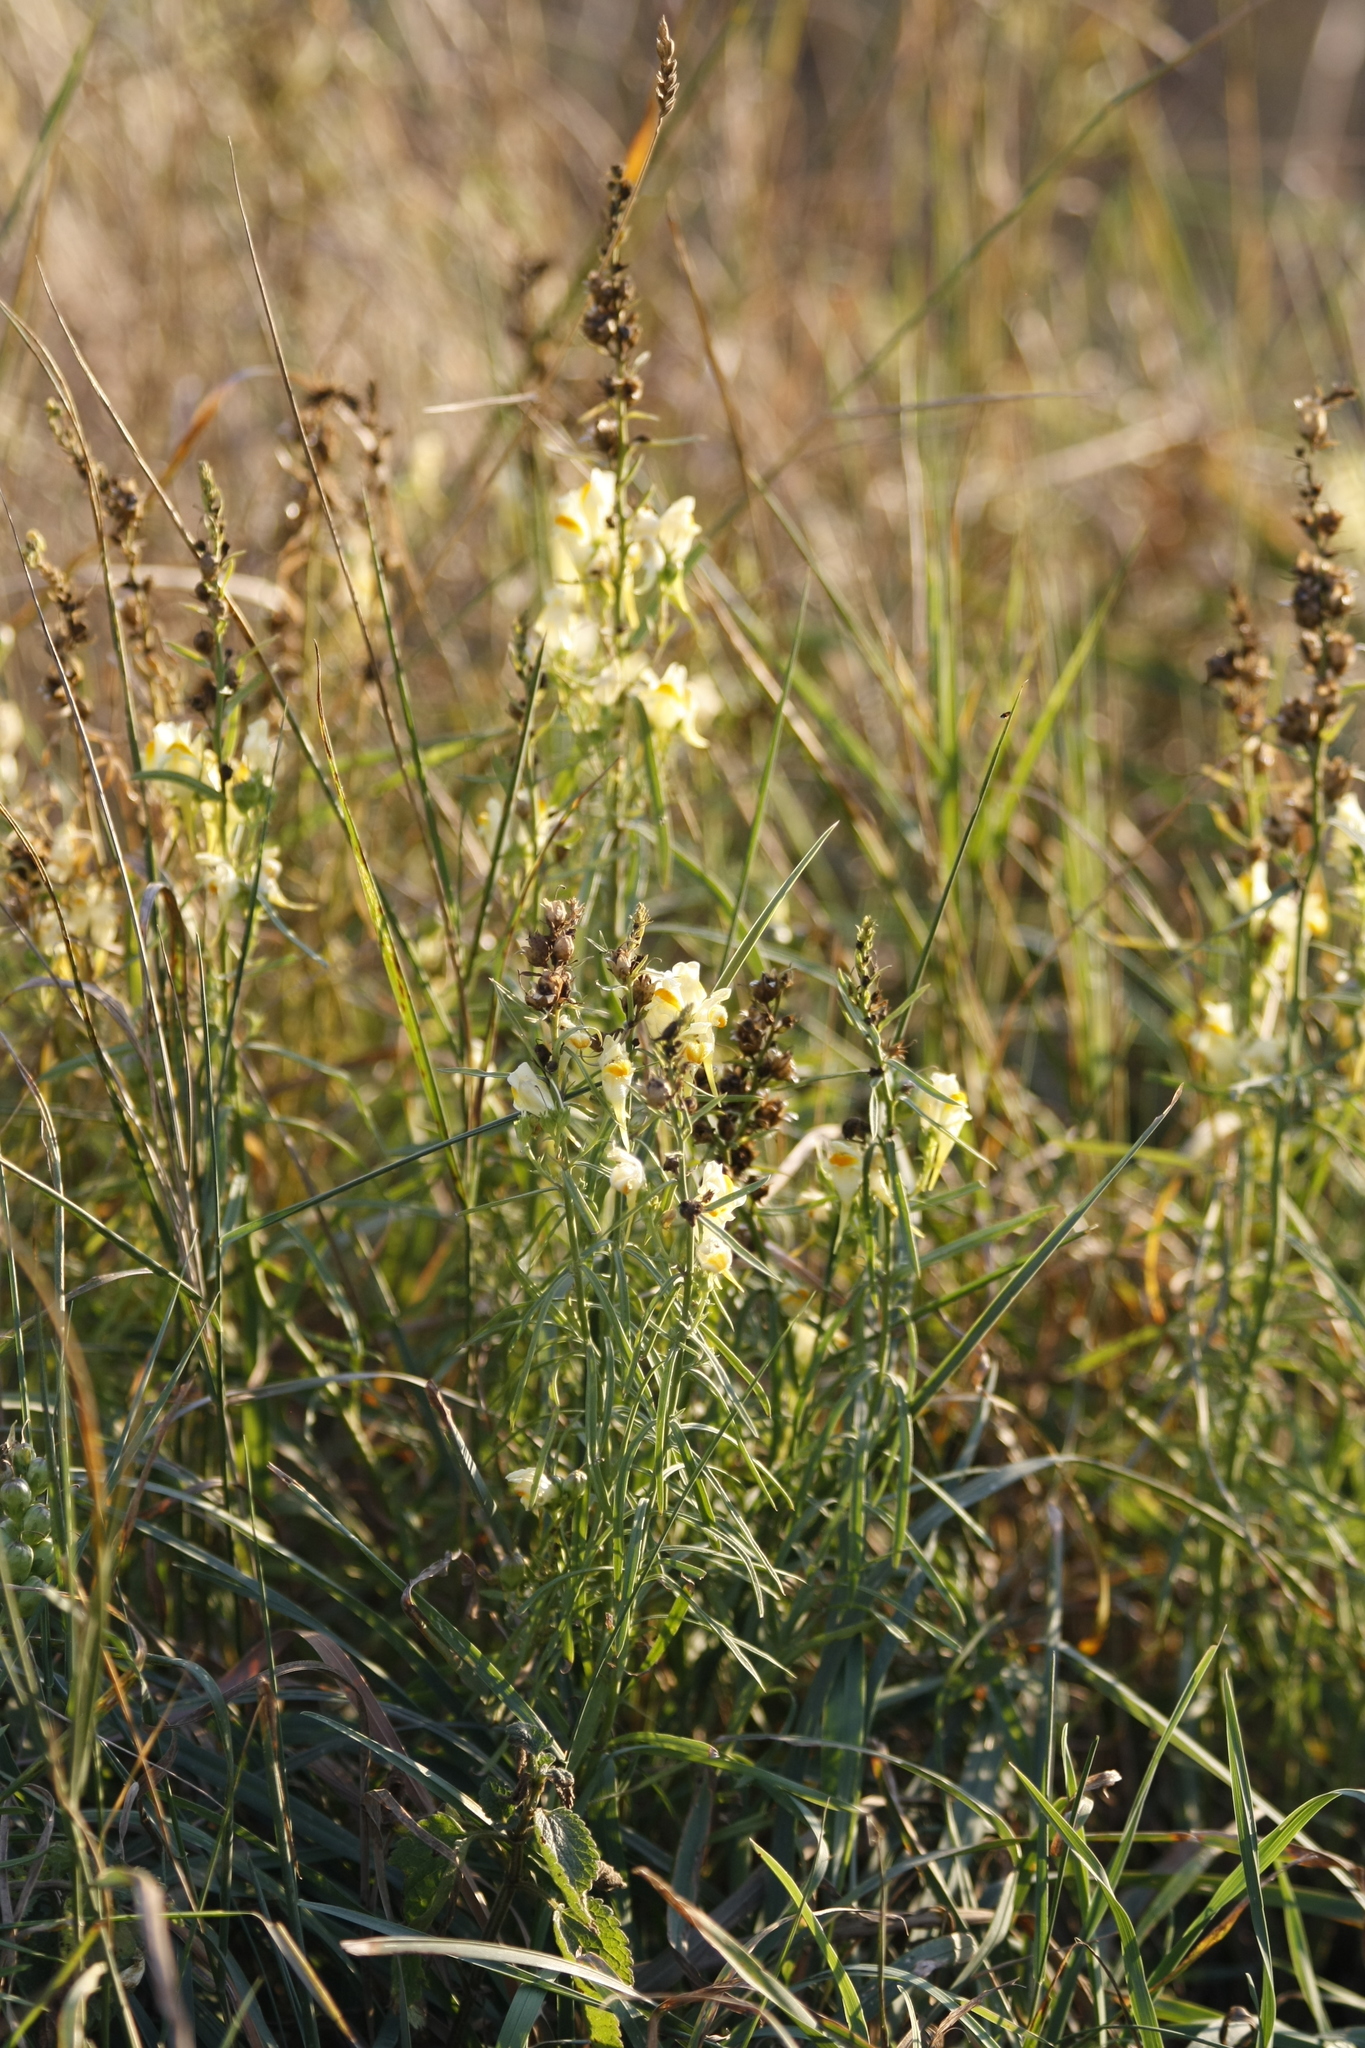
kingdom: Plantae
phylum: Tracheophyta
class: Magnoliopsida
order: Lamiales
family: Plantaginaceae
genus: Linaria
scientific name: Linaria vulgaris
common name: Butter and eggs
